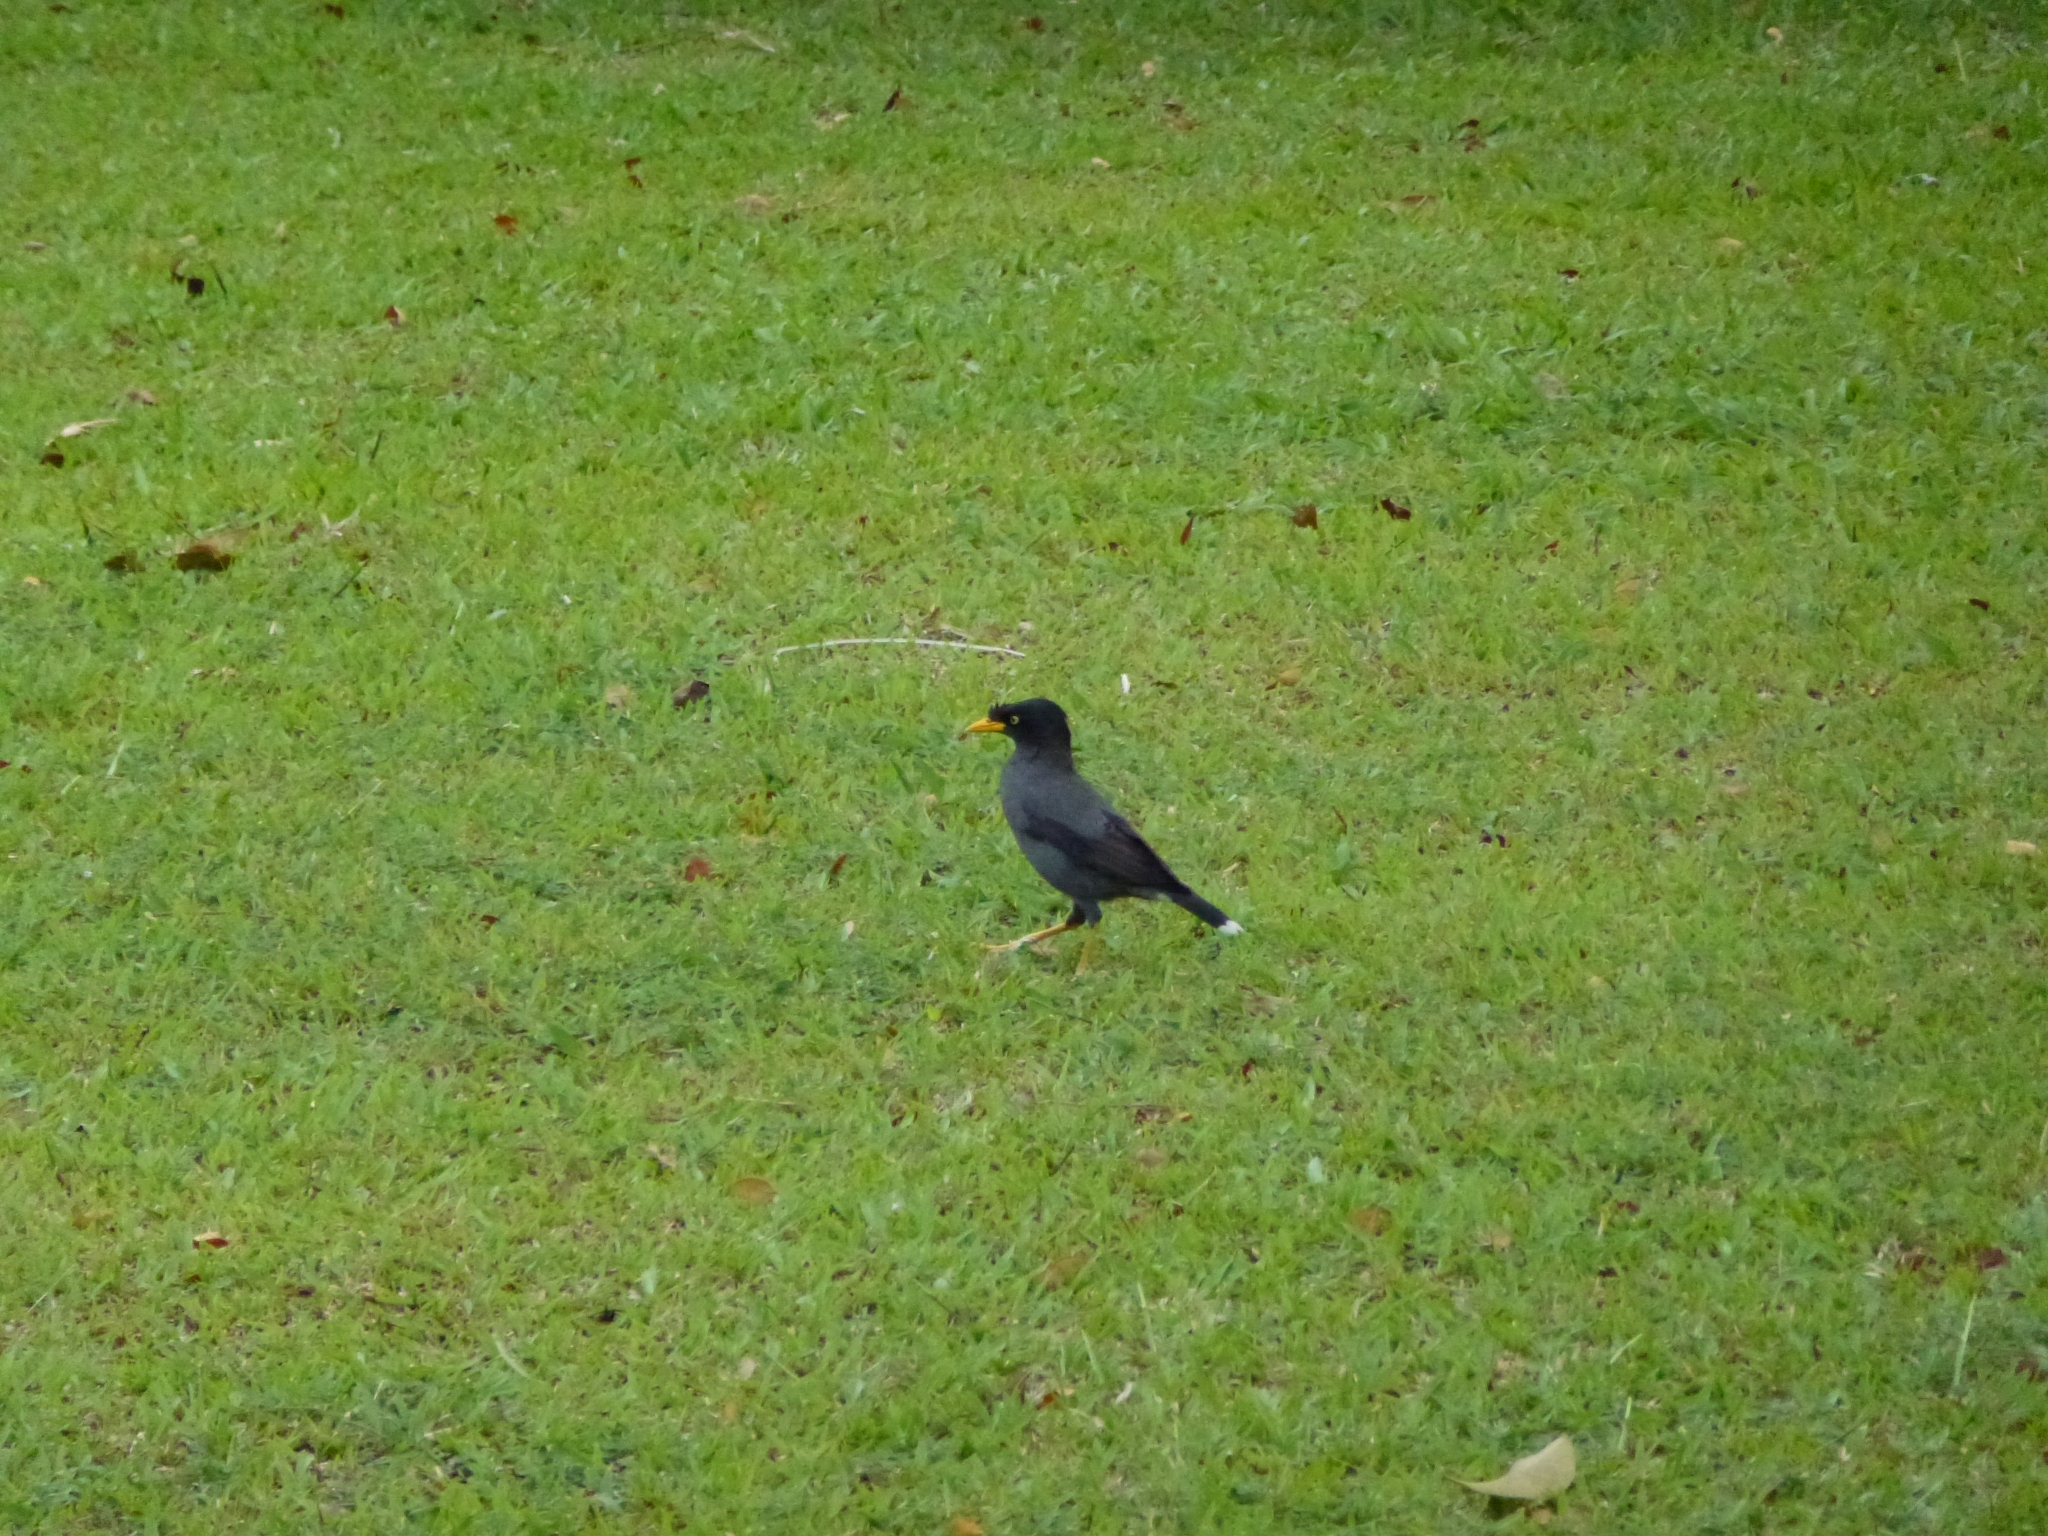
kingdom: Animalia
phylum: Chordata
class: Aves
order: Passeriformes
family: Sturnidae
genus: Acridotheres
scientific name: Acridotheres javanicus
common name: Javan myna
